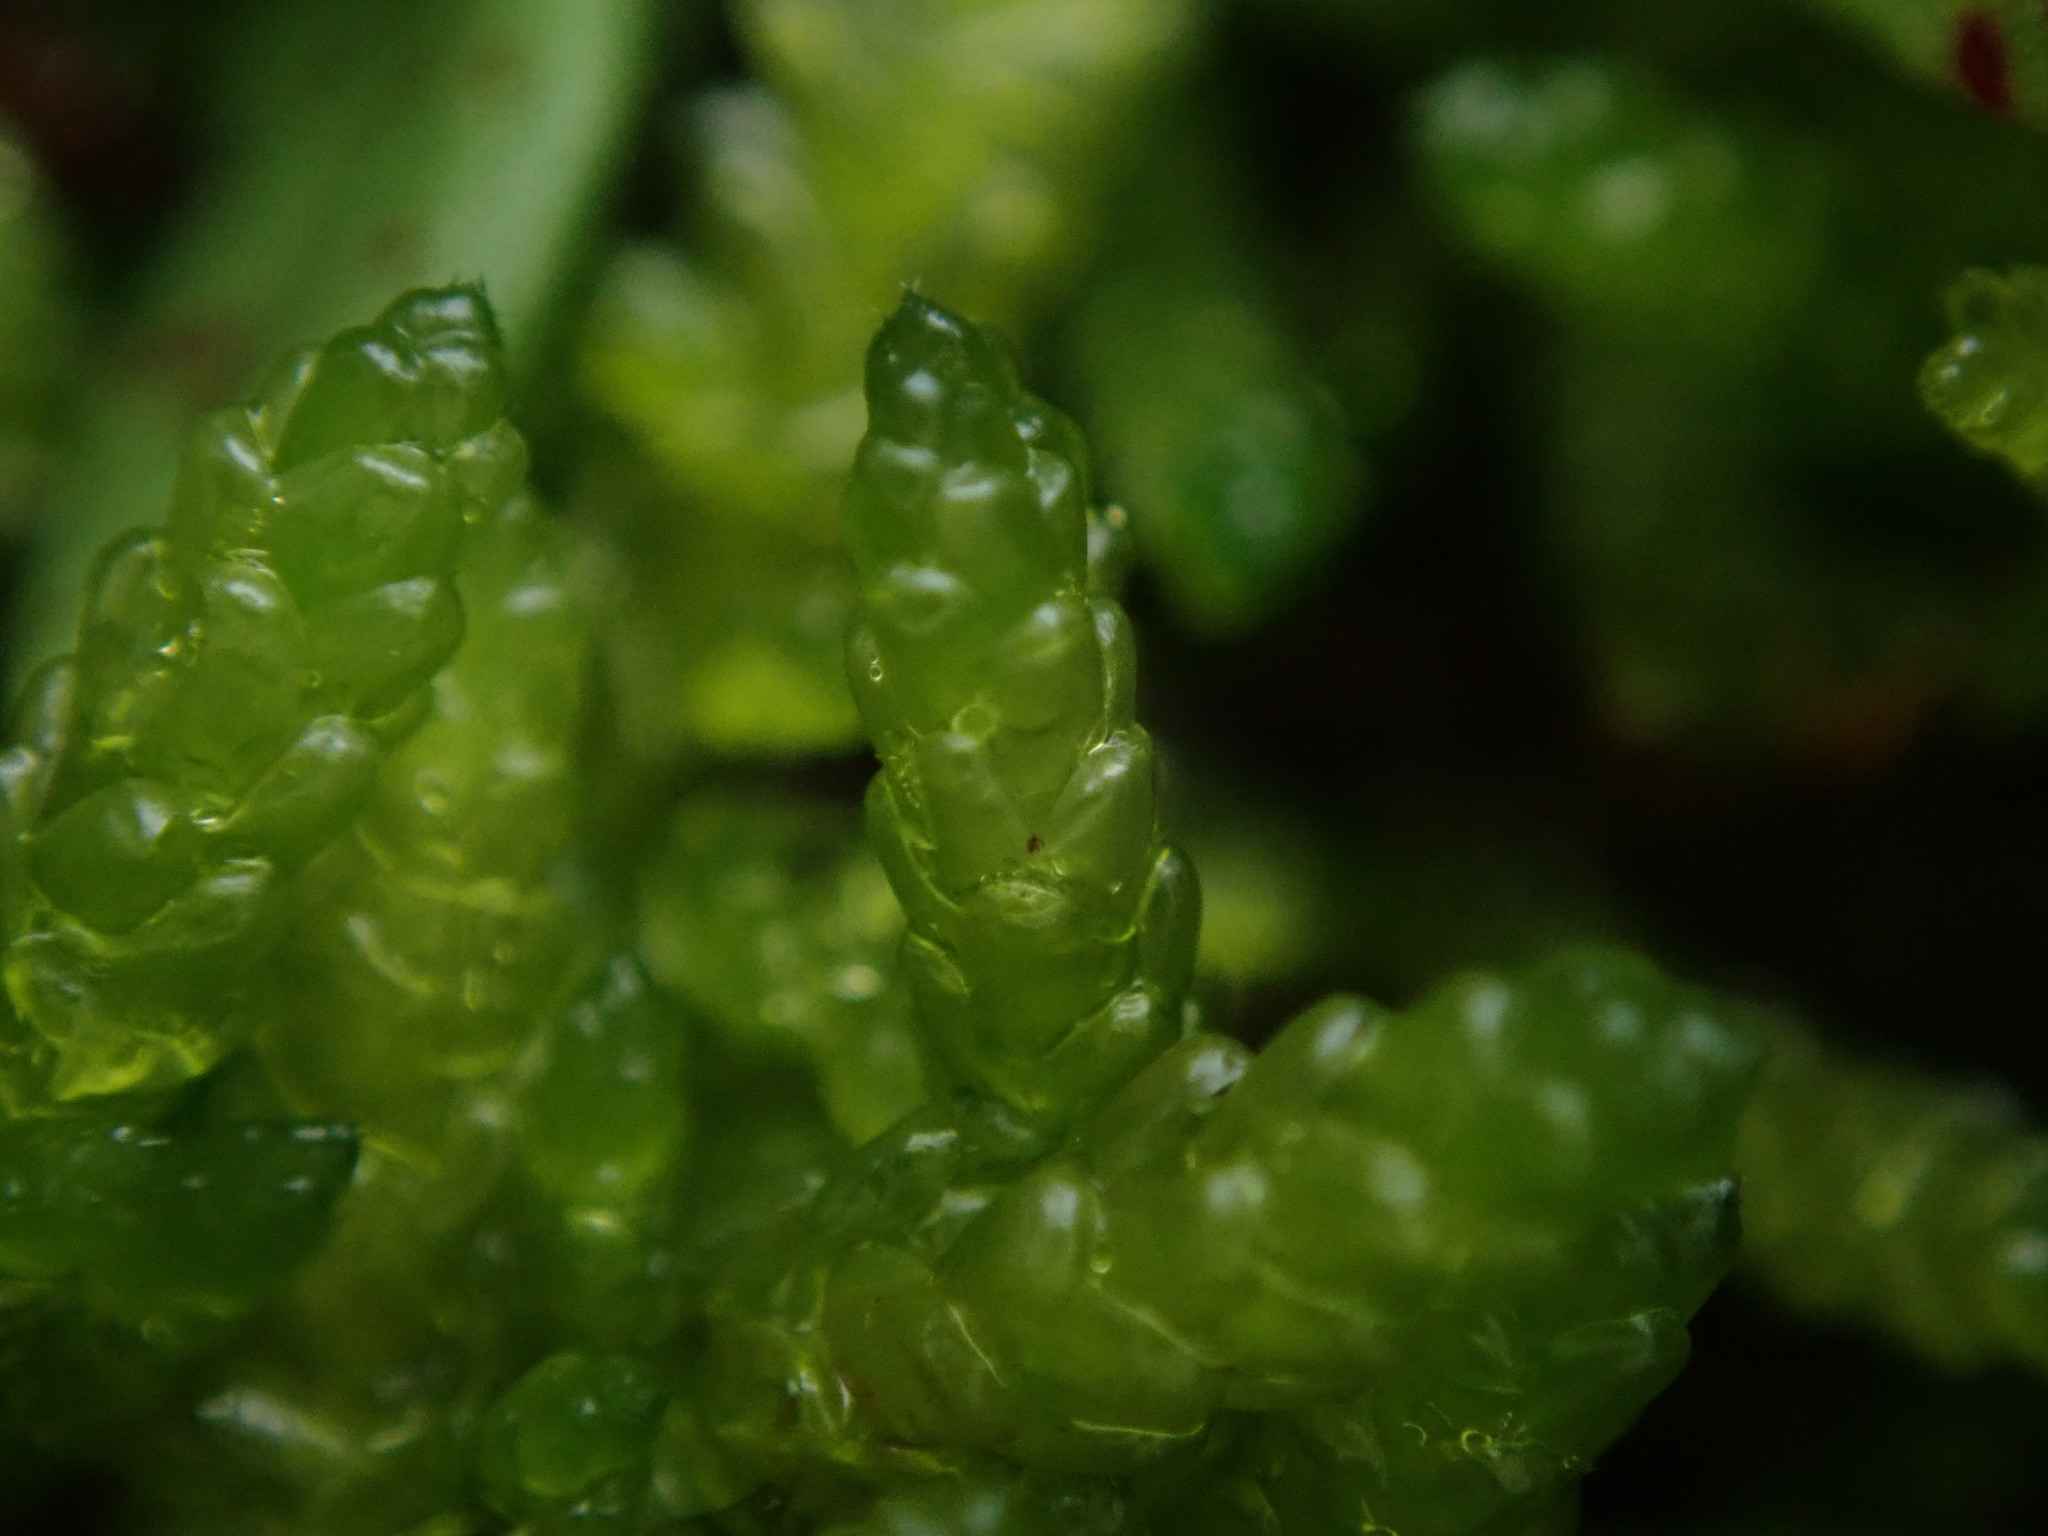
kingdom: Plantae
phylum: Bryophyta
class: Bryopsida
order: Hypnales
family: Brachytheciaceae
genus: Pseudoscleropodium
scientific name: Pseudoscleropodium purum
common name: Neat feather-moss
